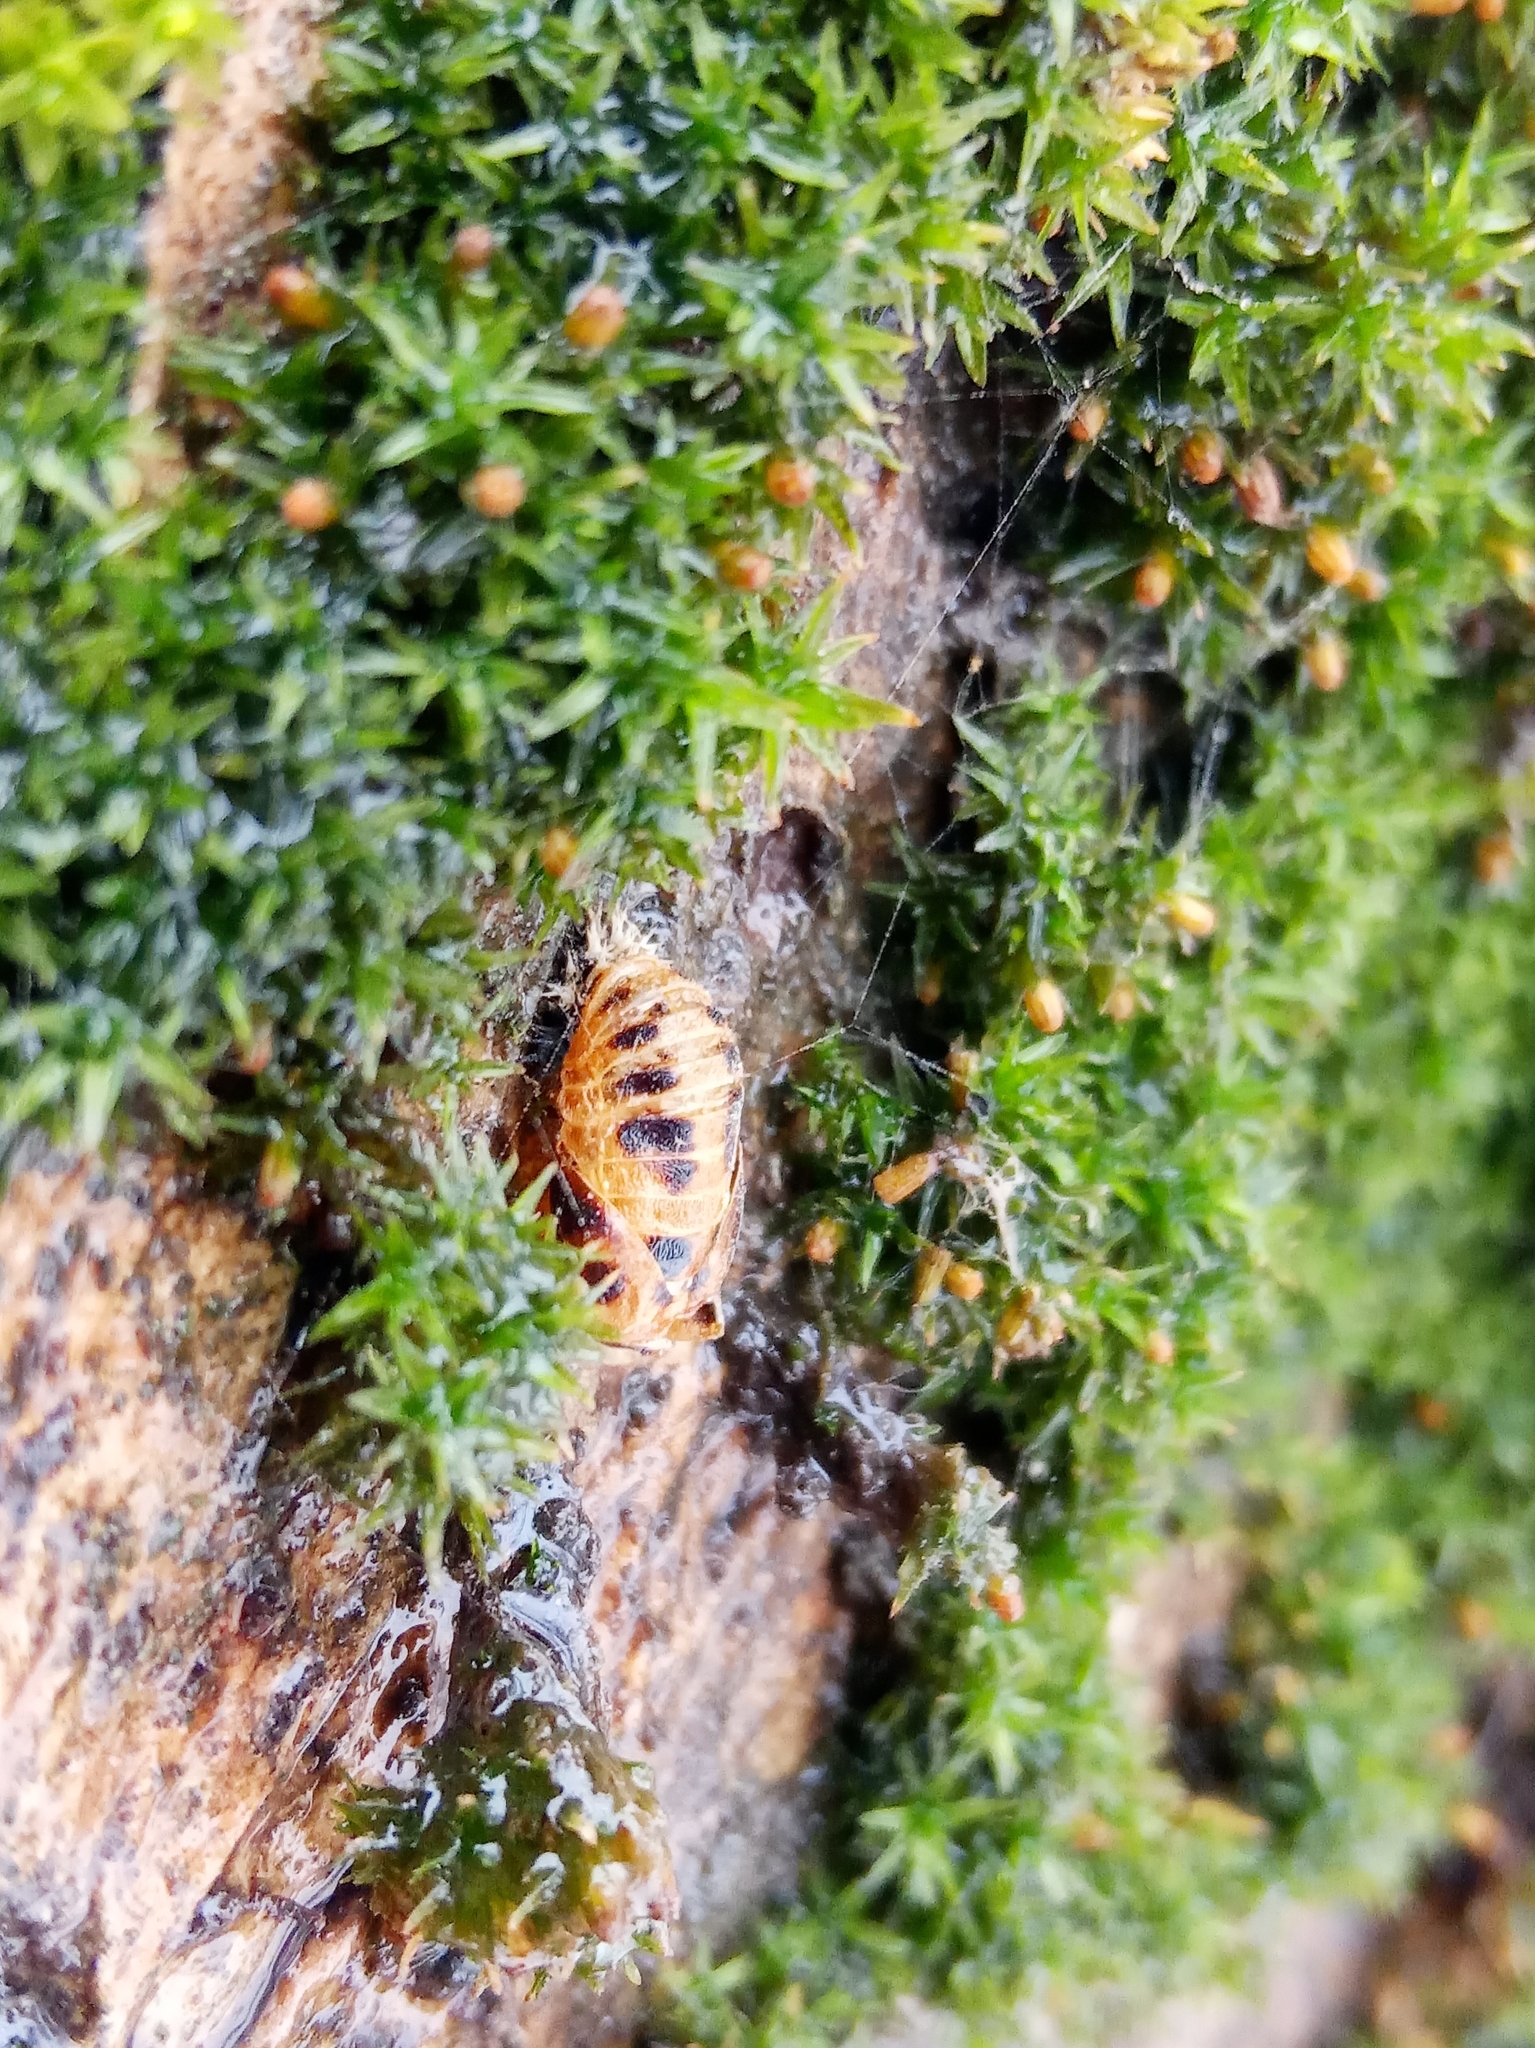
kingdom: Animalia
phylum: Arthropoda
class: Insecta
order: Coleoptera
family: Coccinellidae
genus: Harmonia
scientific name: Harmonia axyridis
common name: Harlequin ladybird
